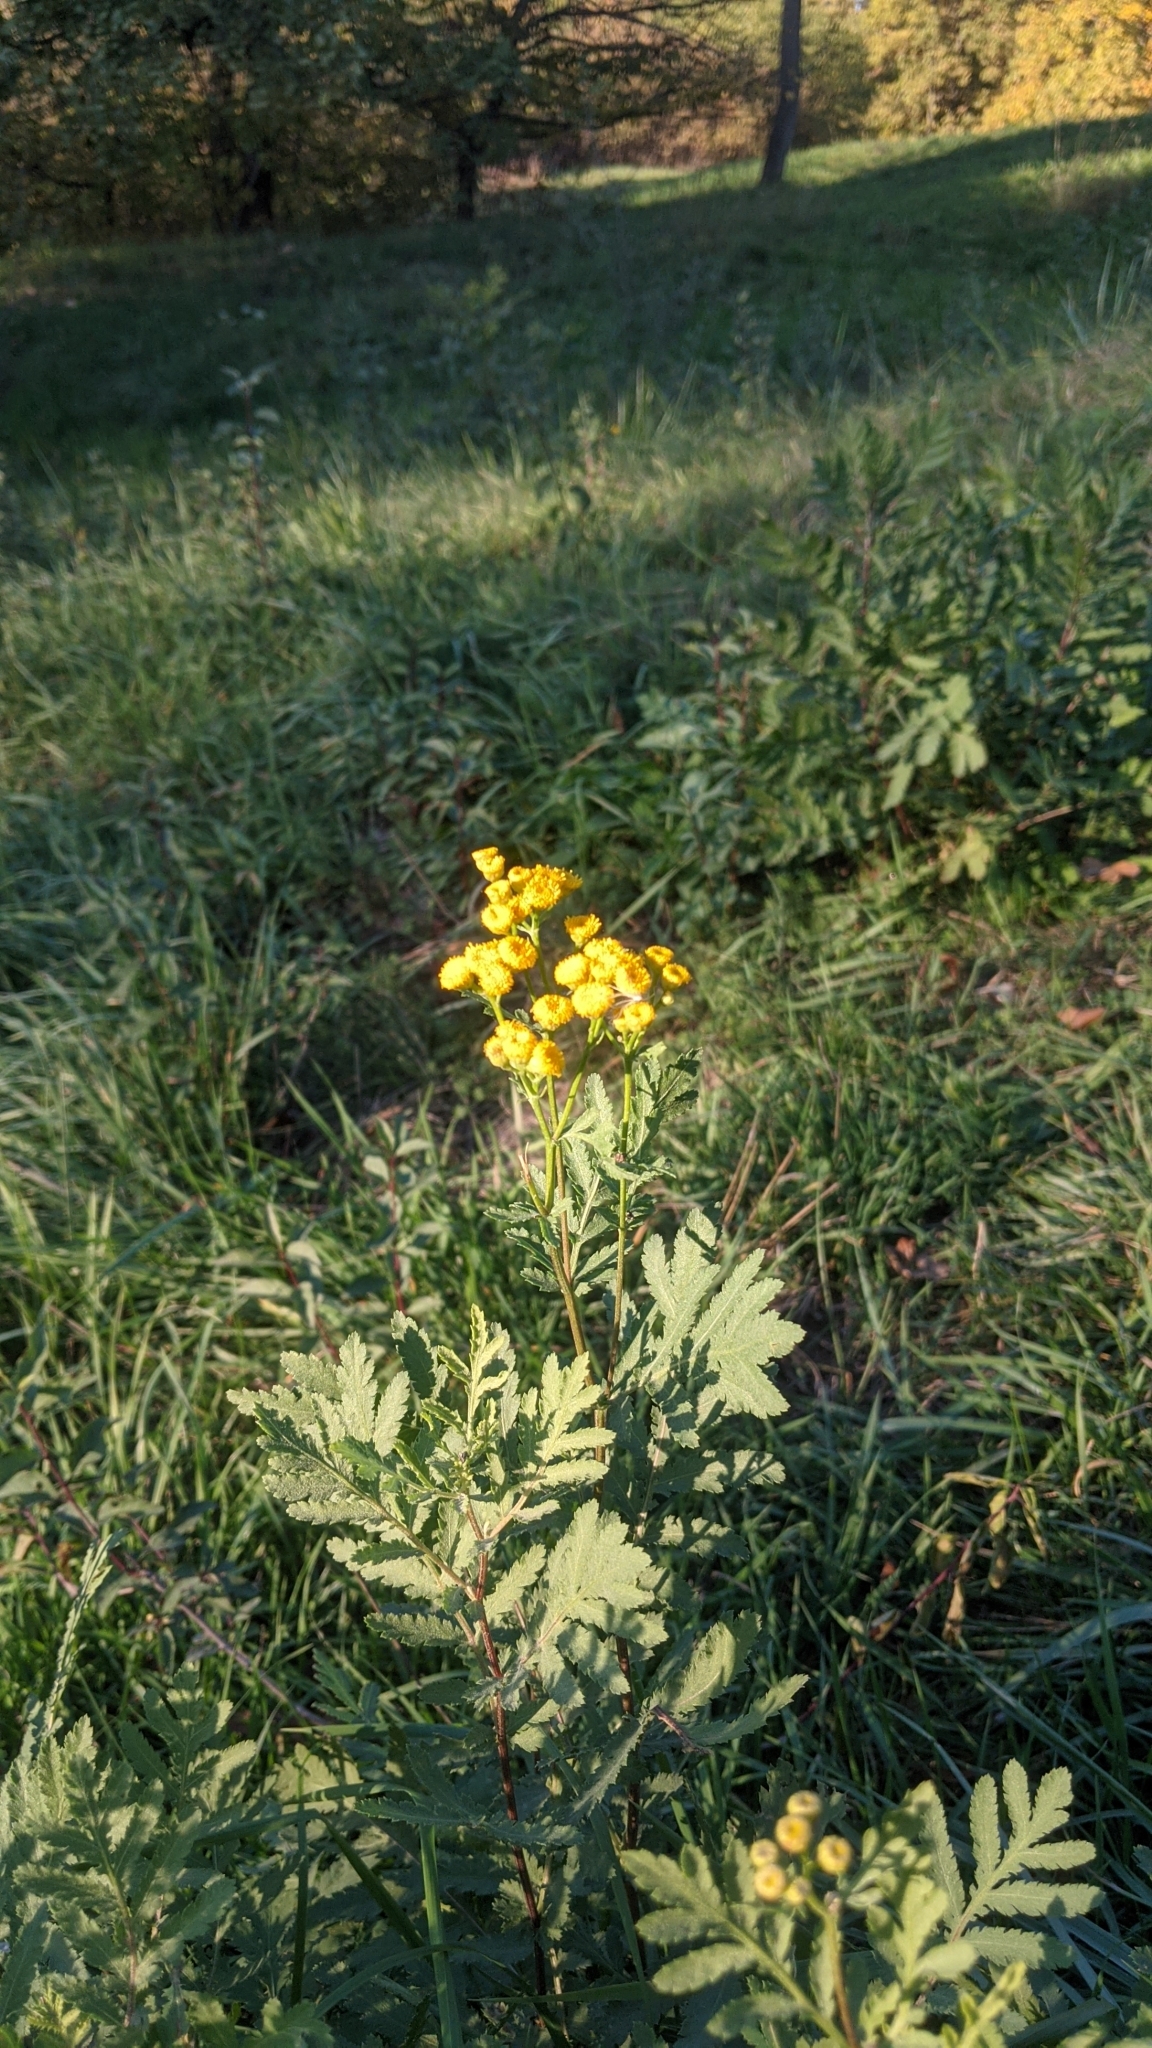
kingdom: Plantae
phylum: Tracheophyta
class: Magnoliopsida
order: Asterales
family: Asteraceae
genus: Tanacetum
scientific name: Tanacetum vulgare
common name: Common tansy
